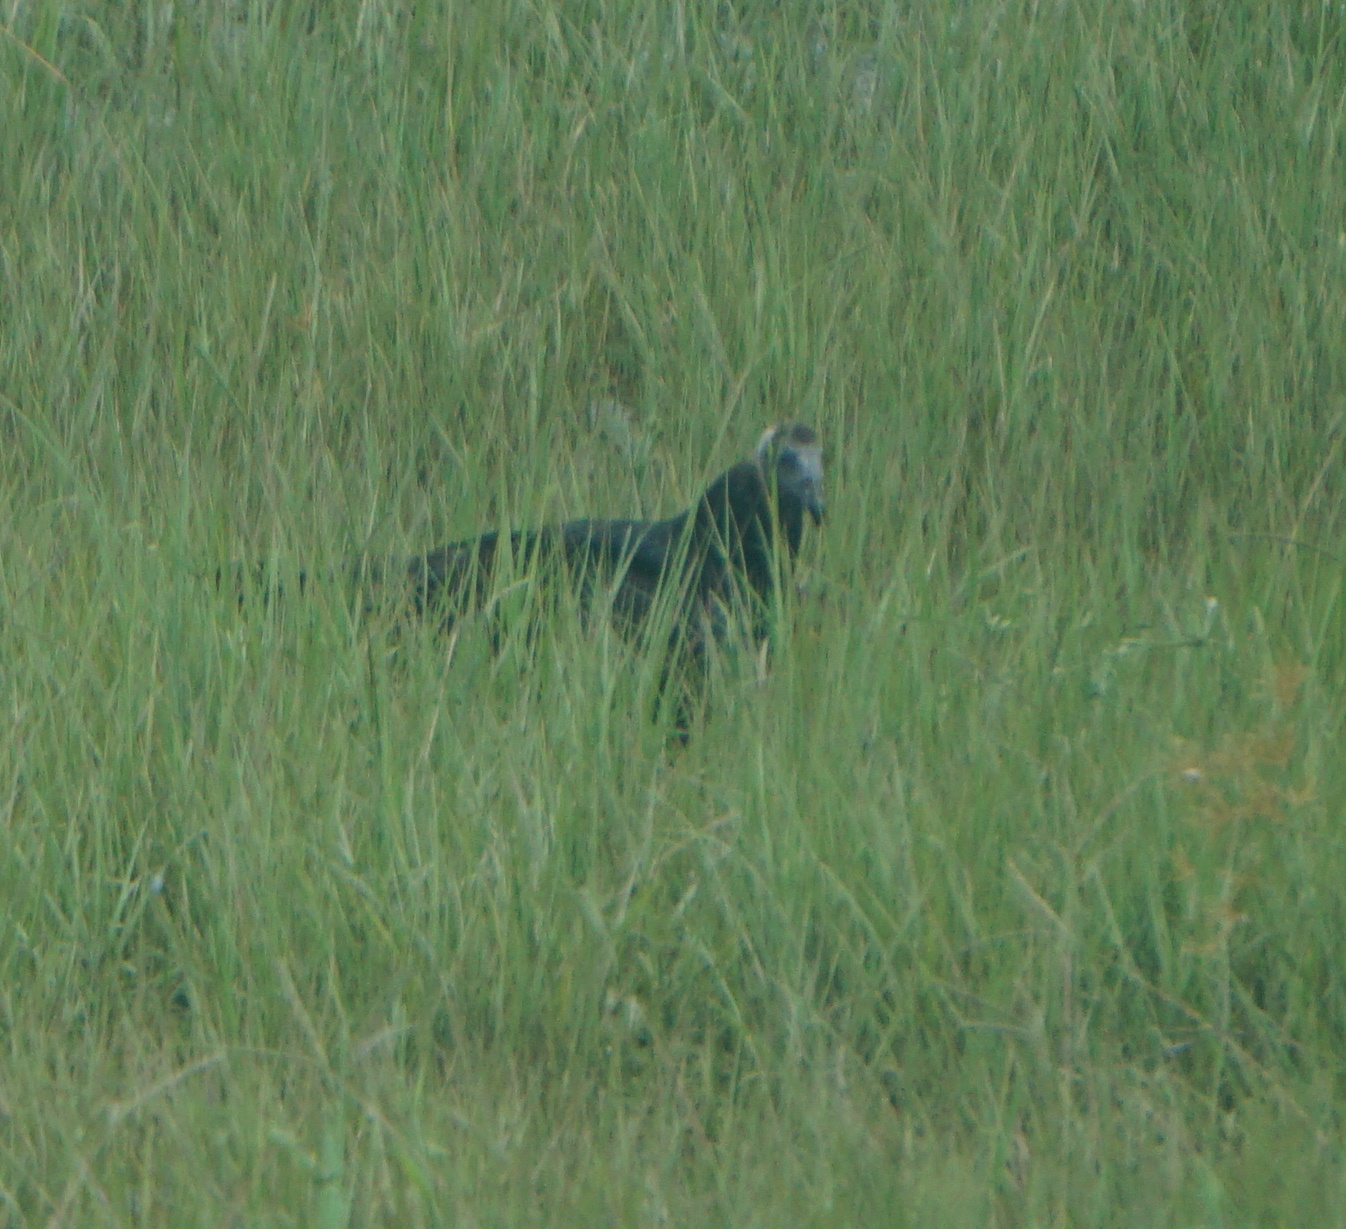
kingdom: Animalia
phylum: Chordata
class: Aves
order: Accipitriformes
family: Cathartidae
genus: Cathartes
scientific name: Cathartes aura
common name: Turkey vulture
